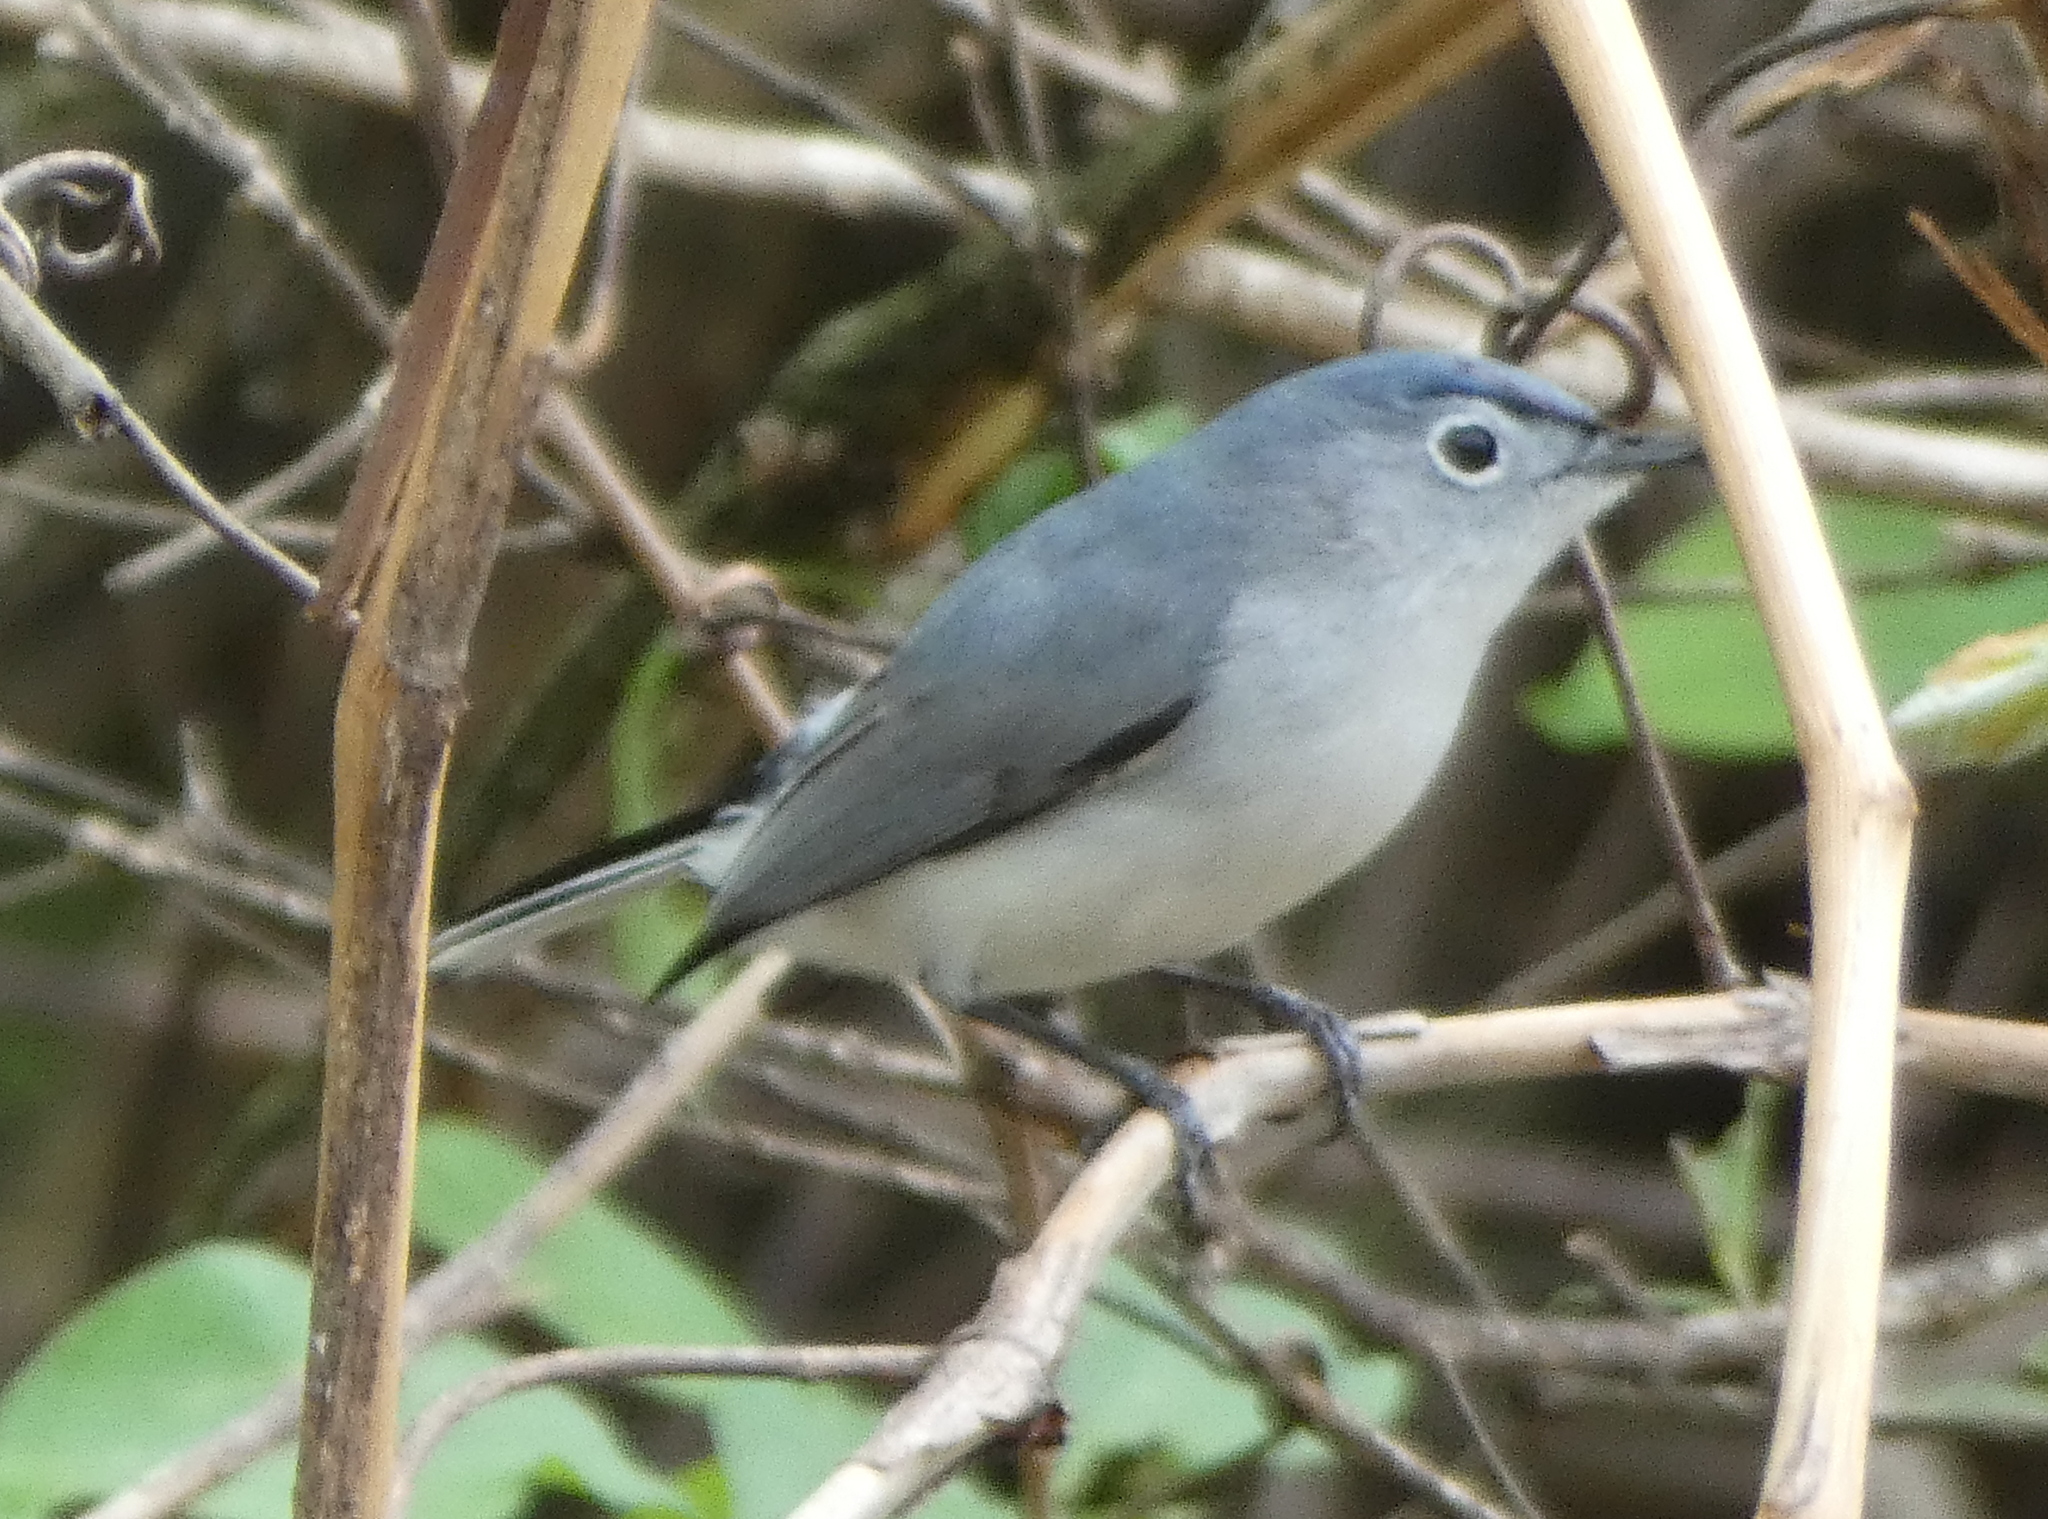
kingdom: Animalia
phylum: Chordata
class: Aves
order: Passeriformes
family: Polioptilidae
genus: Polioptila
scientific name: Polioptila caerulea
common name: Blue-gray gnatcatcher
